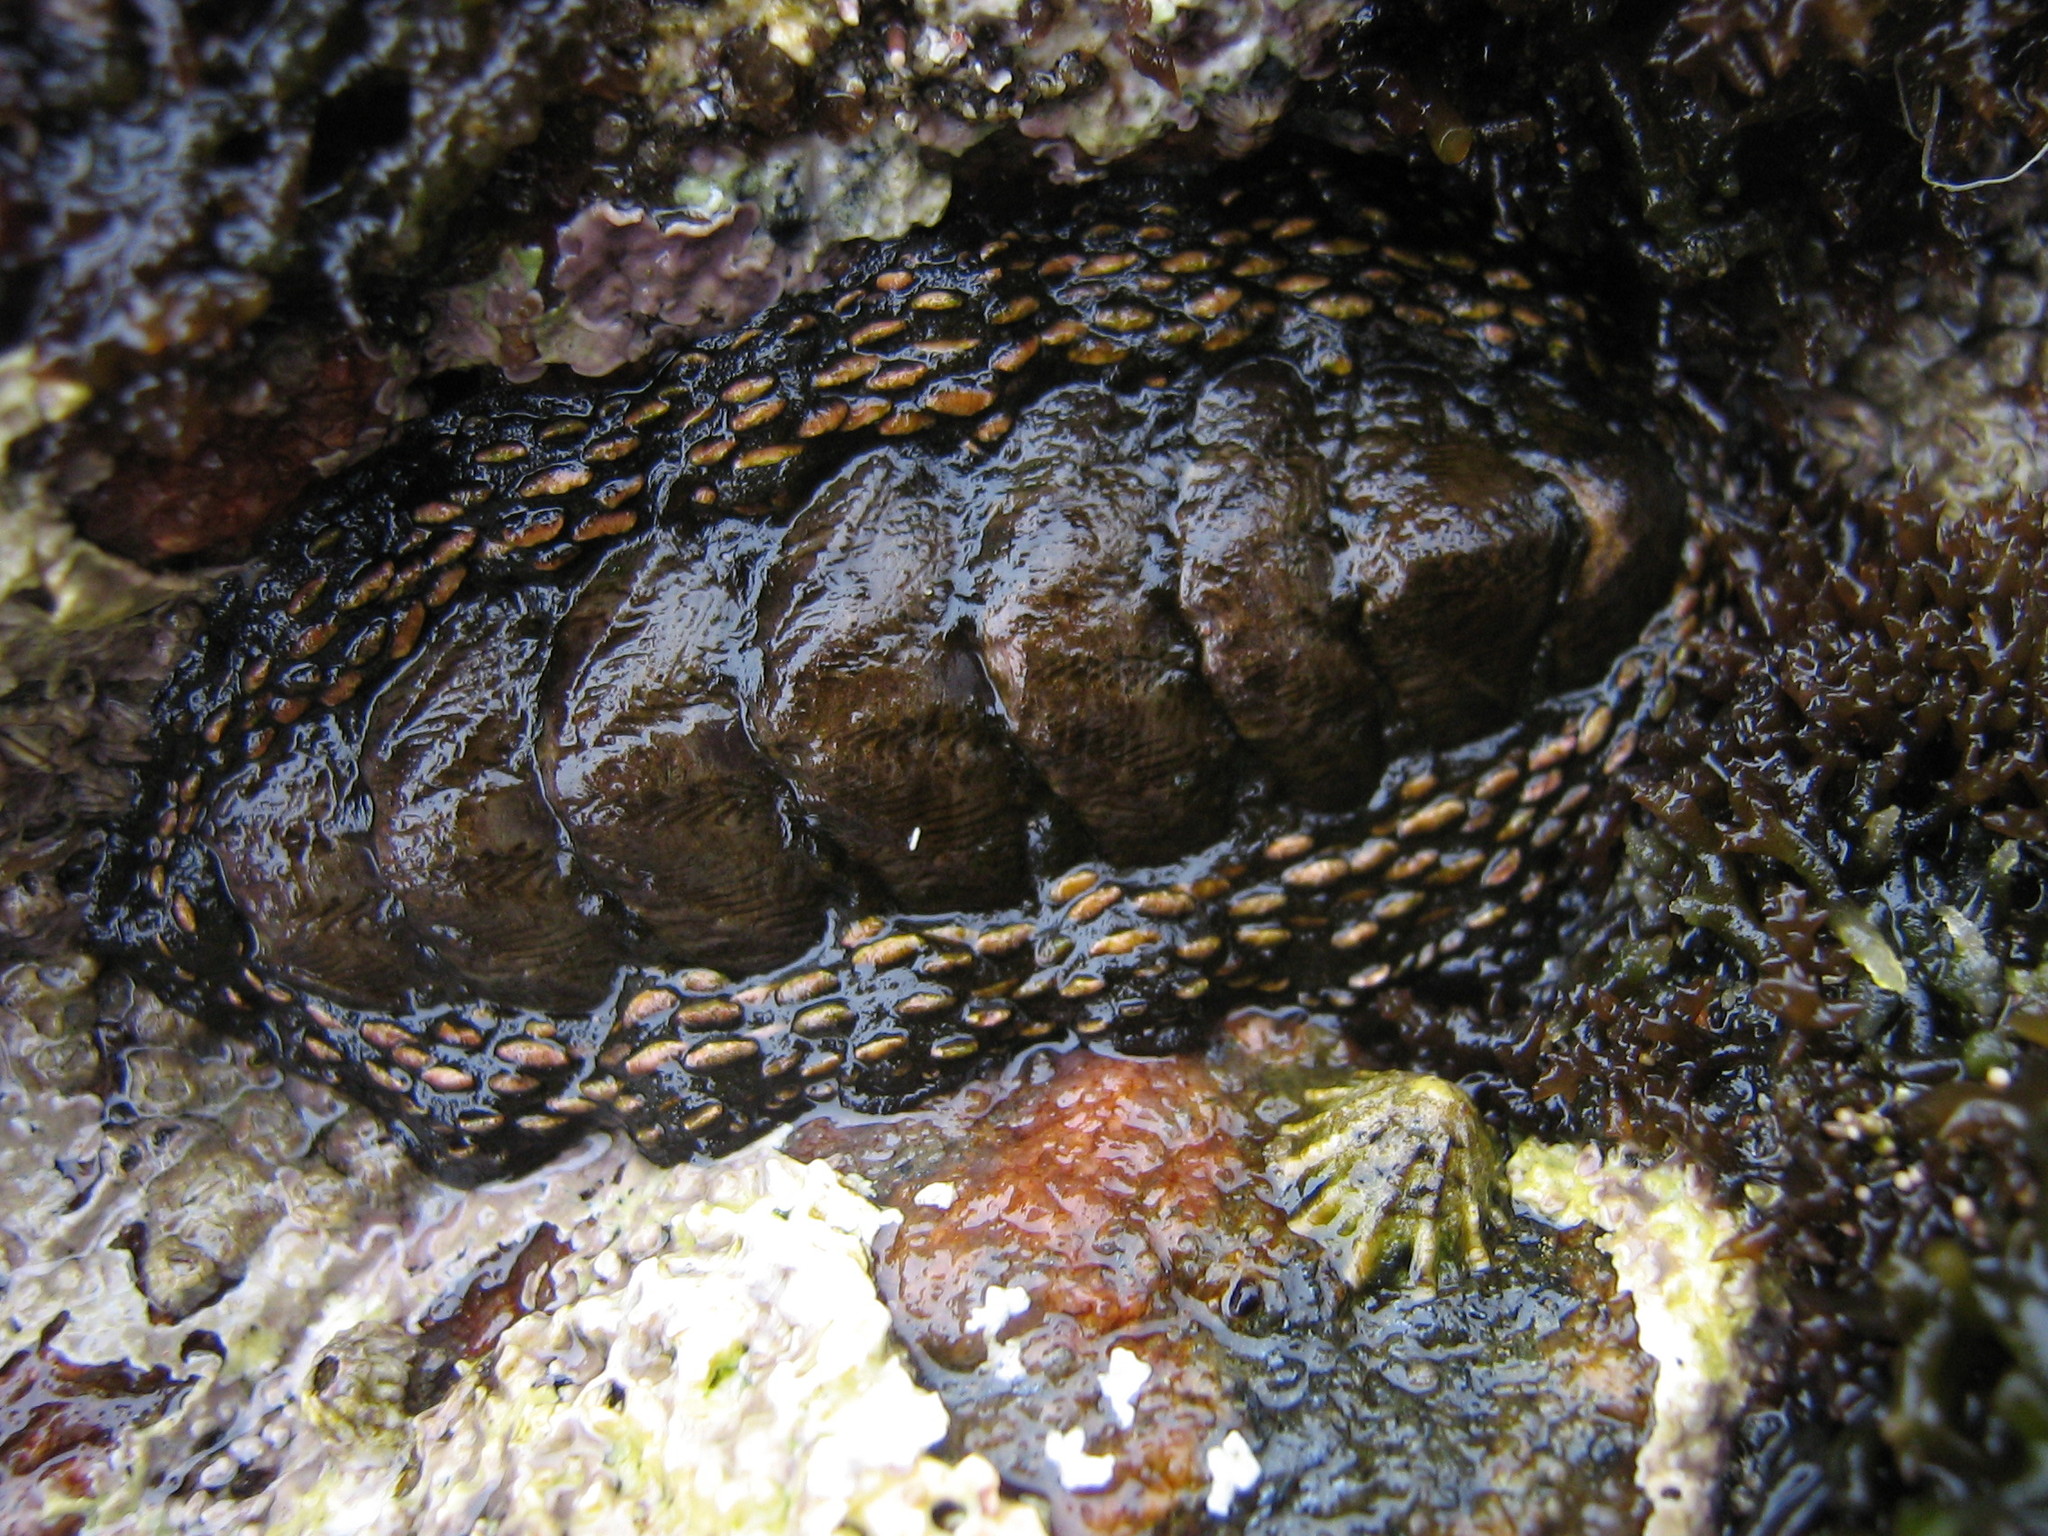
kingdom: Animalia
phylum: Mollusca
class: Polyplacophora
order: Chitonida
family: Chitonidae
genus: Enoplochiton
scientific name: Enoplochiton niger
